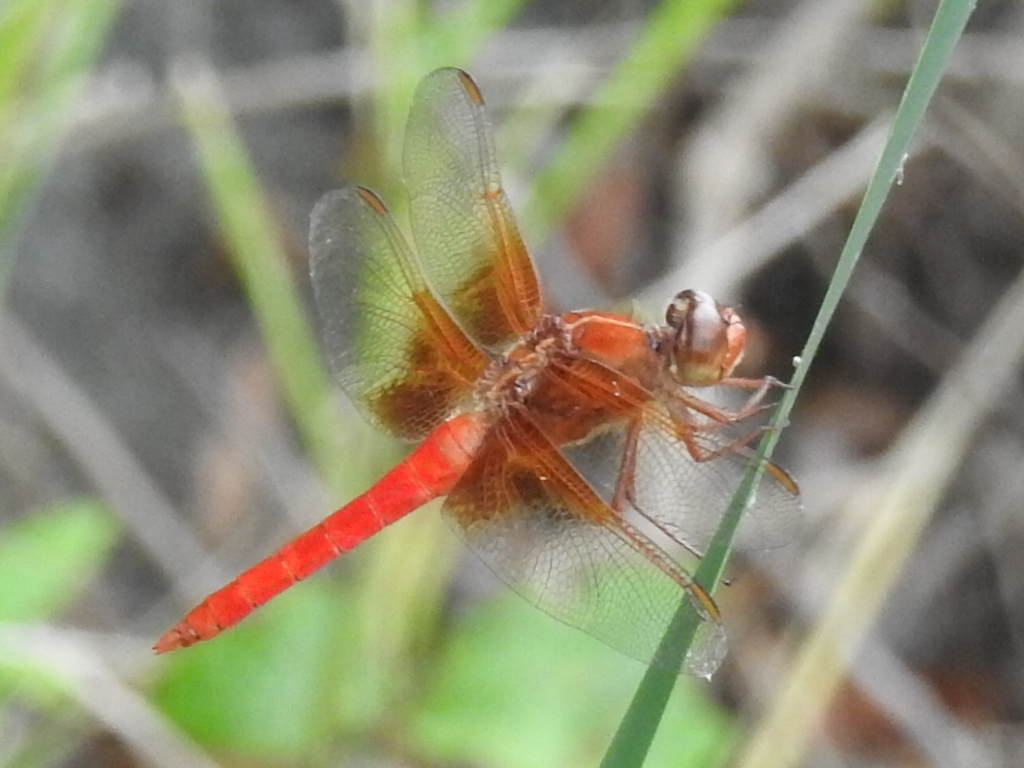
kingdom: Animalia
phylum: Arthropoda
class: Insecta
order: Odonata
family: Libellulidae
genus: Libellula
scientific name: Libellula croceipennis
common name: Neon skimmer
